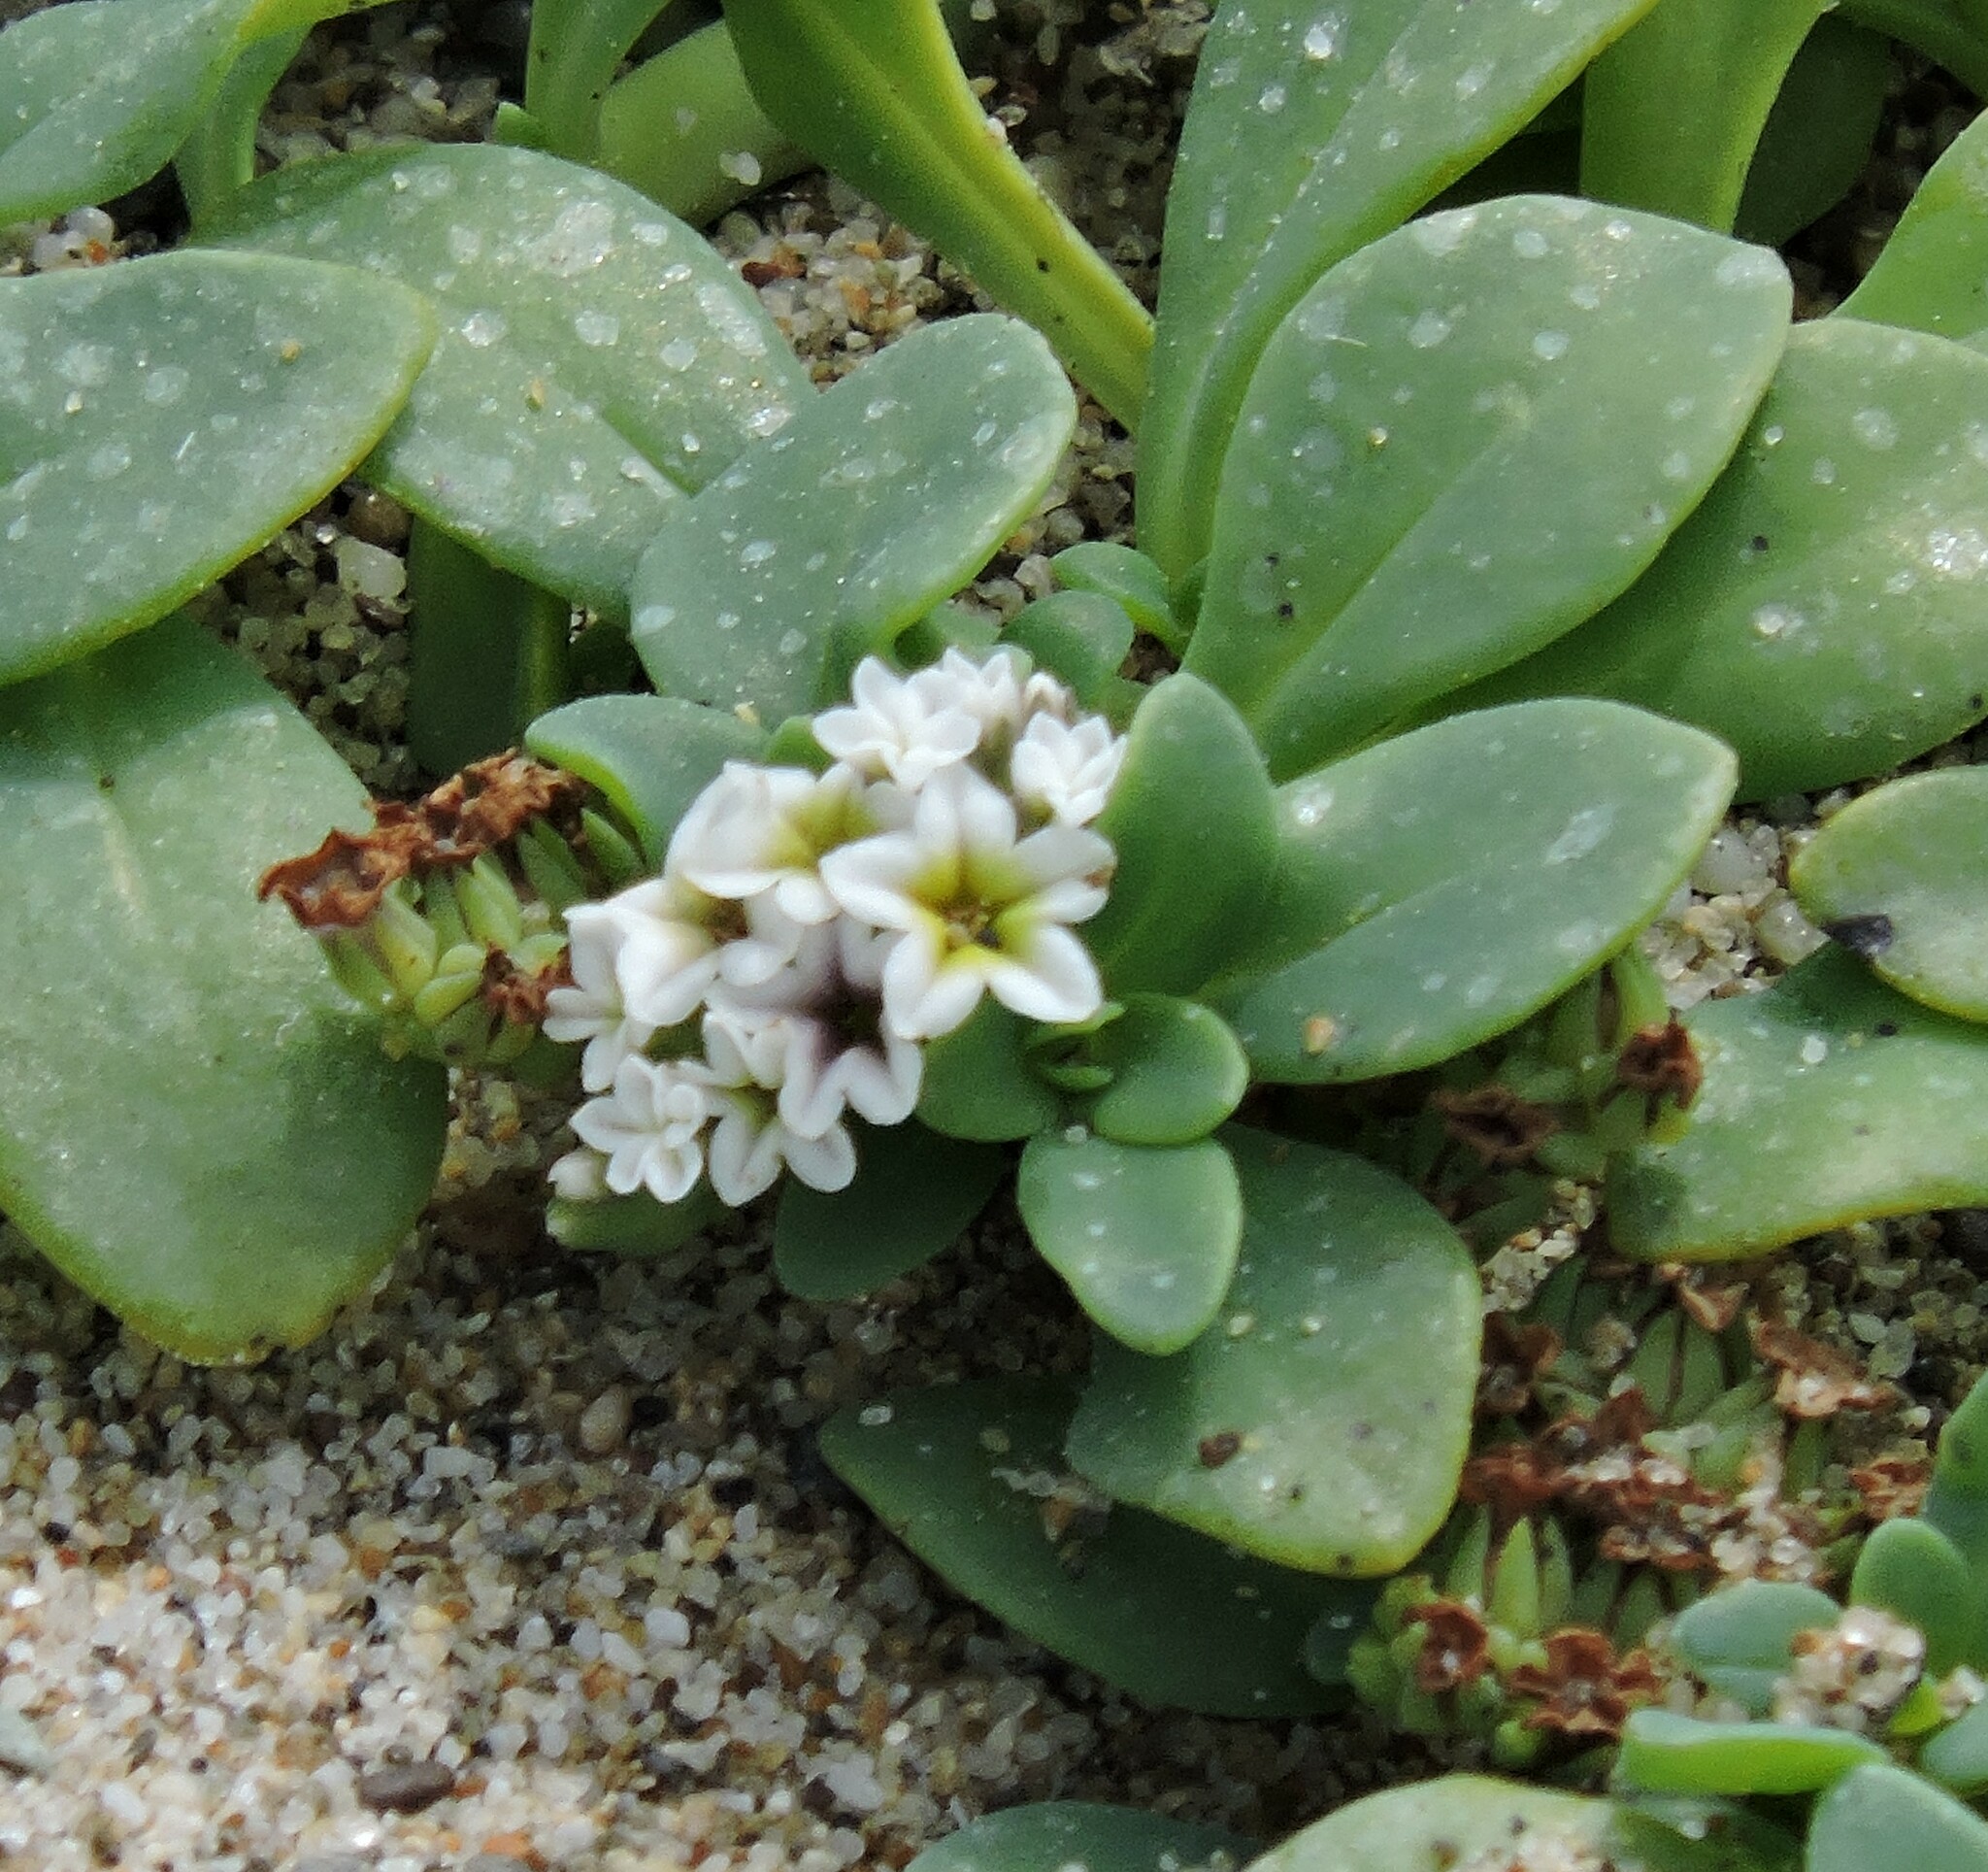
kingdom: Plantae
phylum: Tracheophyta
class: Magnoliopsida
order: Boraginales
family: Heliotropiaceae
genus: Heliotropium
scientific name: Heliotropium curassavicum
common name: Seaside heliotrope
